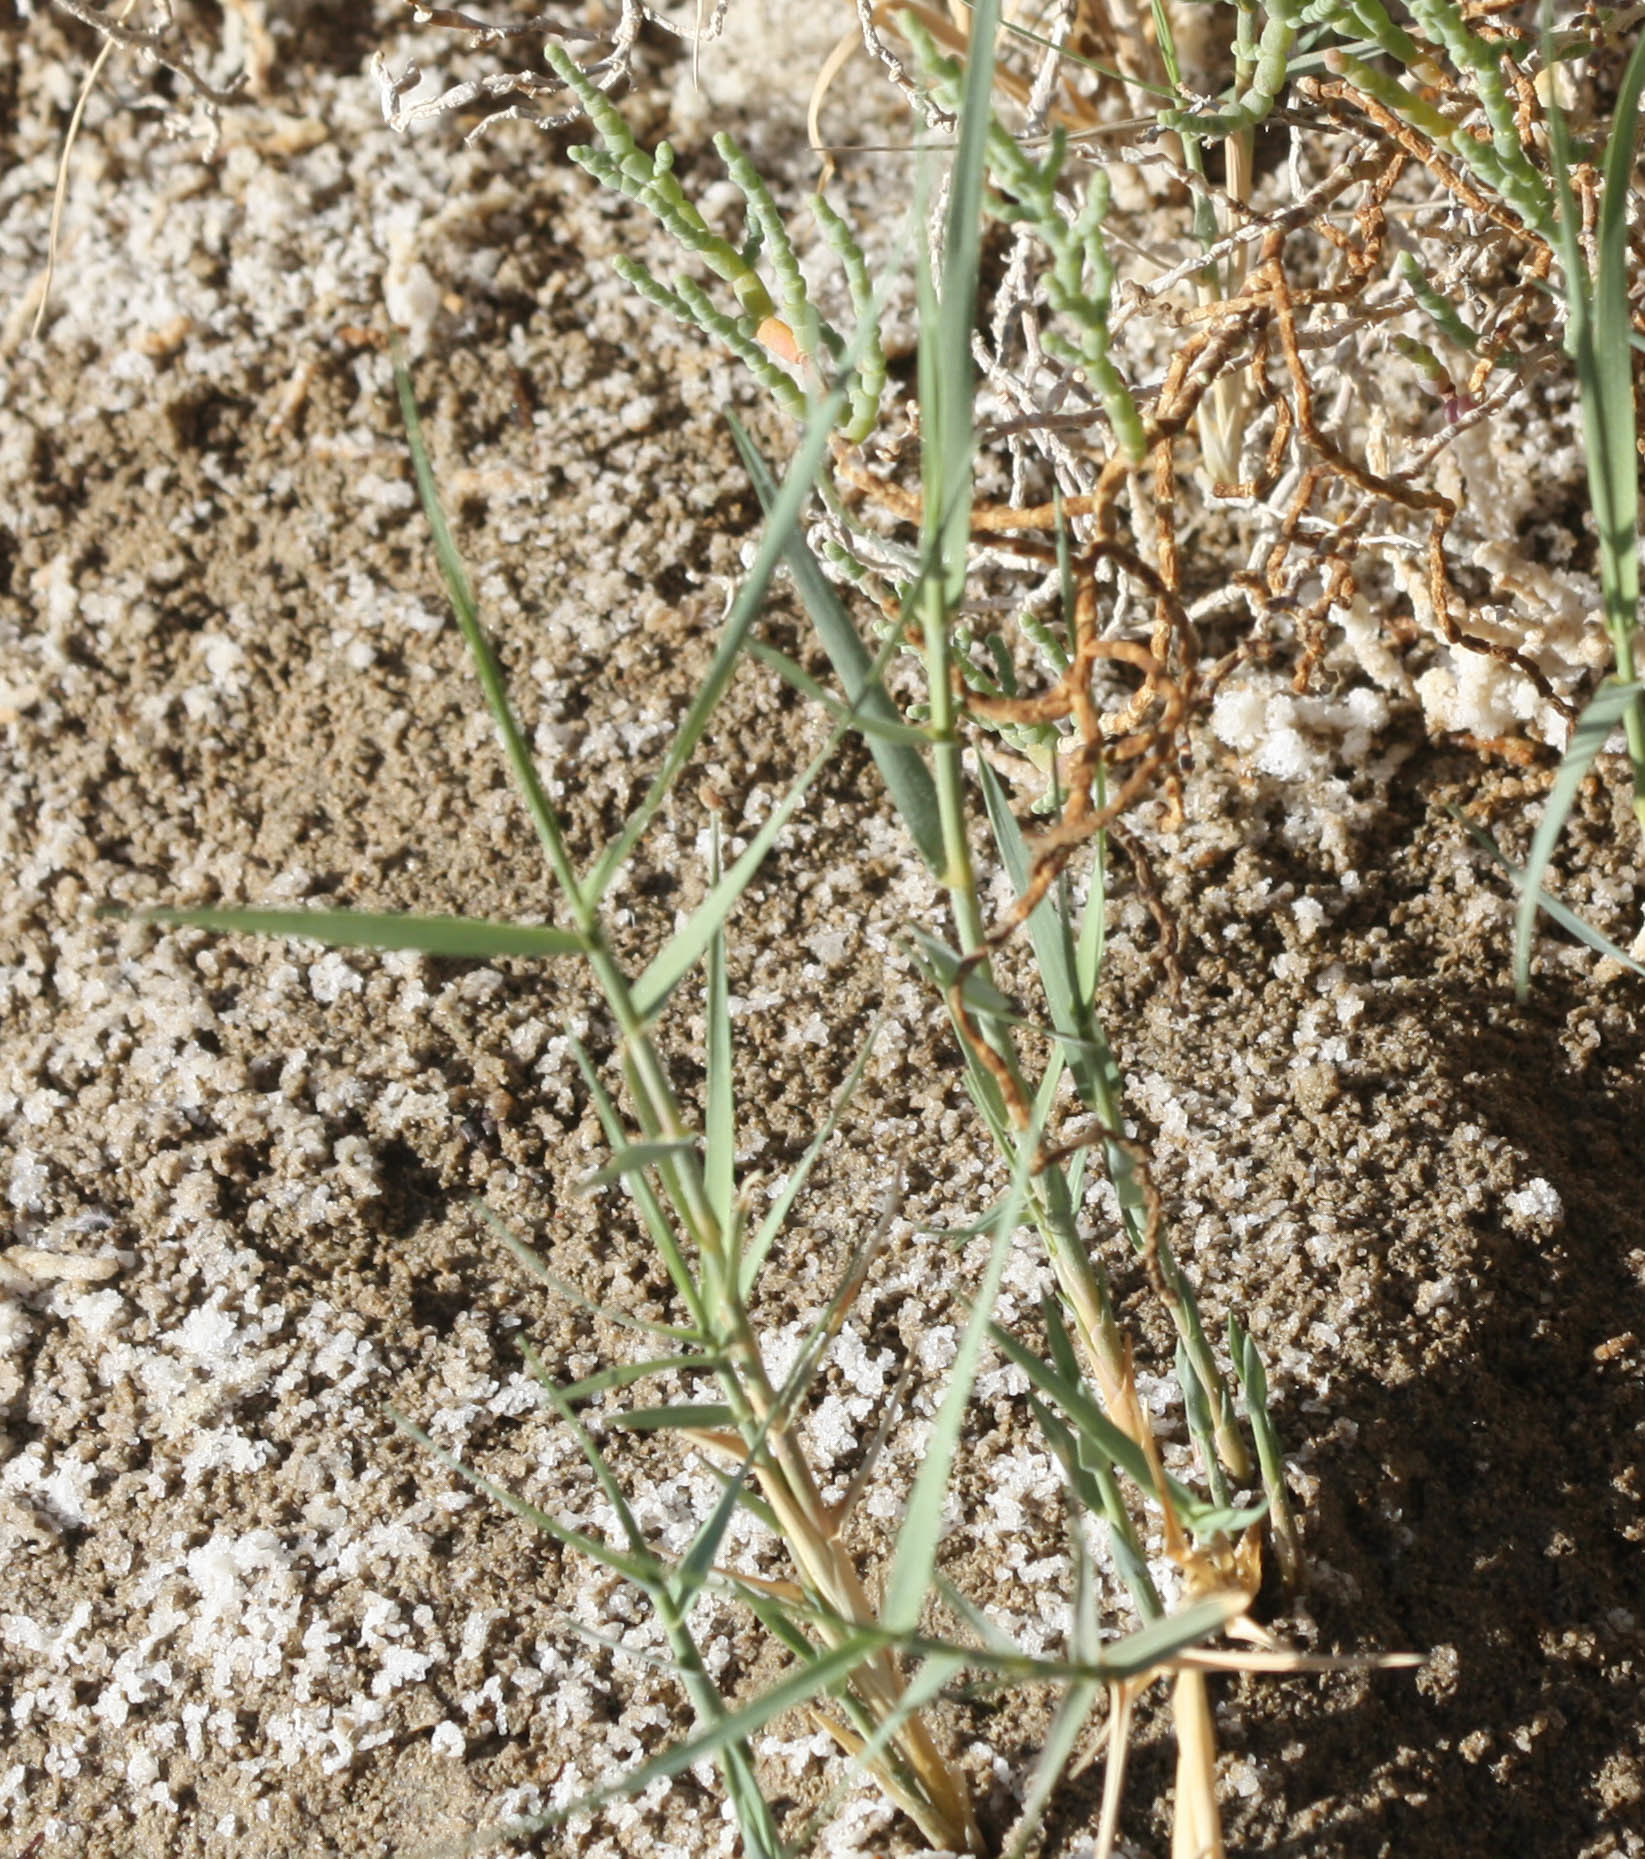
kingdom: Plantae
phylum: Tracheophyta
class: Liliopsida
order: Poales
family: Poaceae
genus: Distichlis
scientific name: Distichlis spicata
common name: Saltgrass
